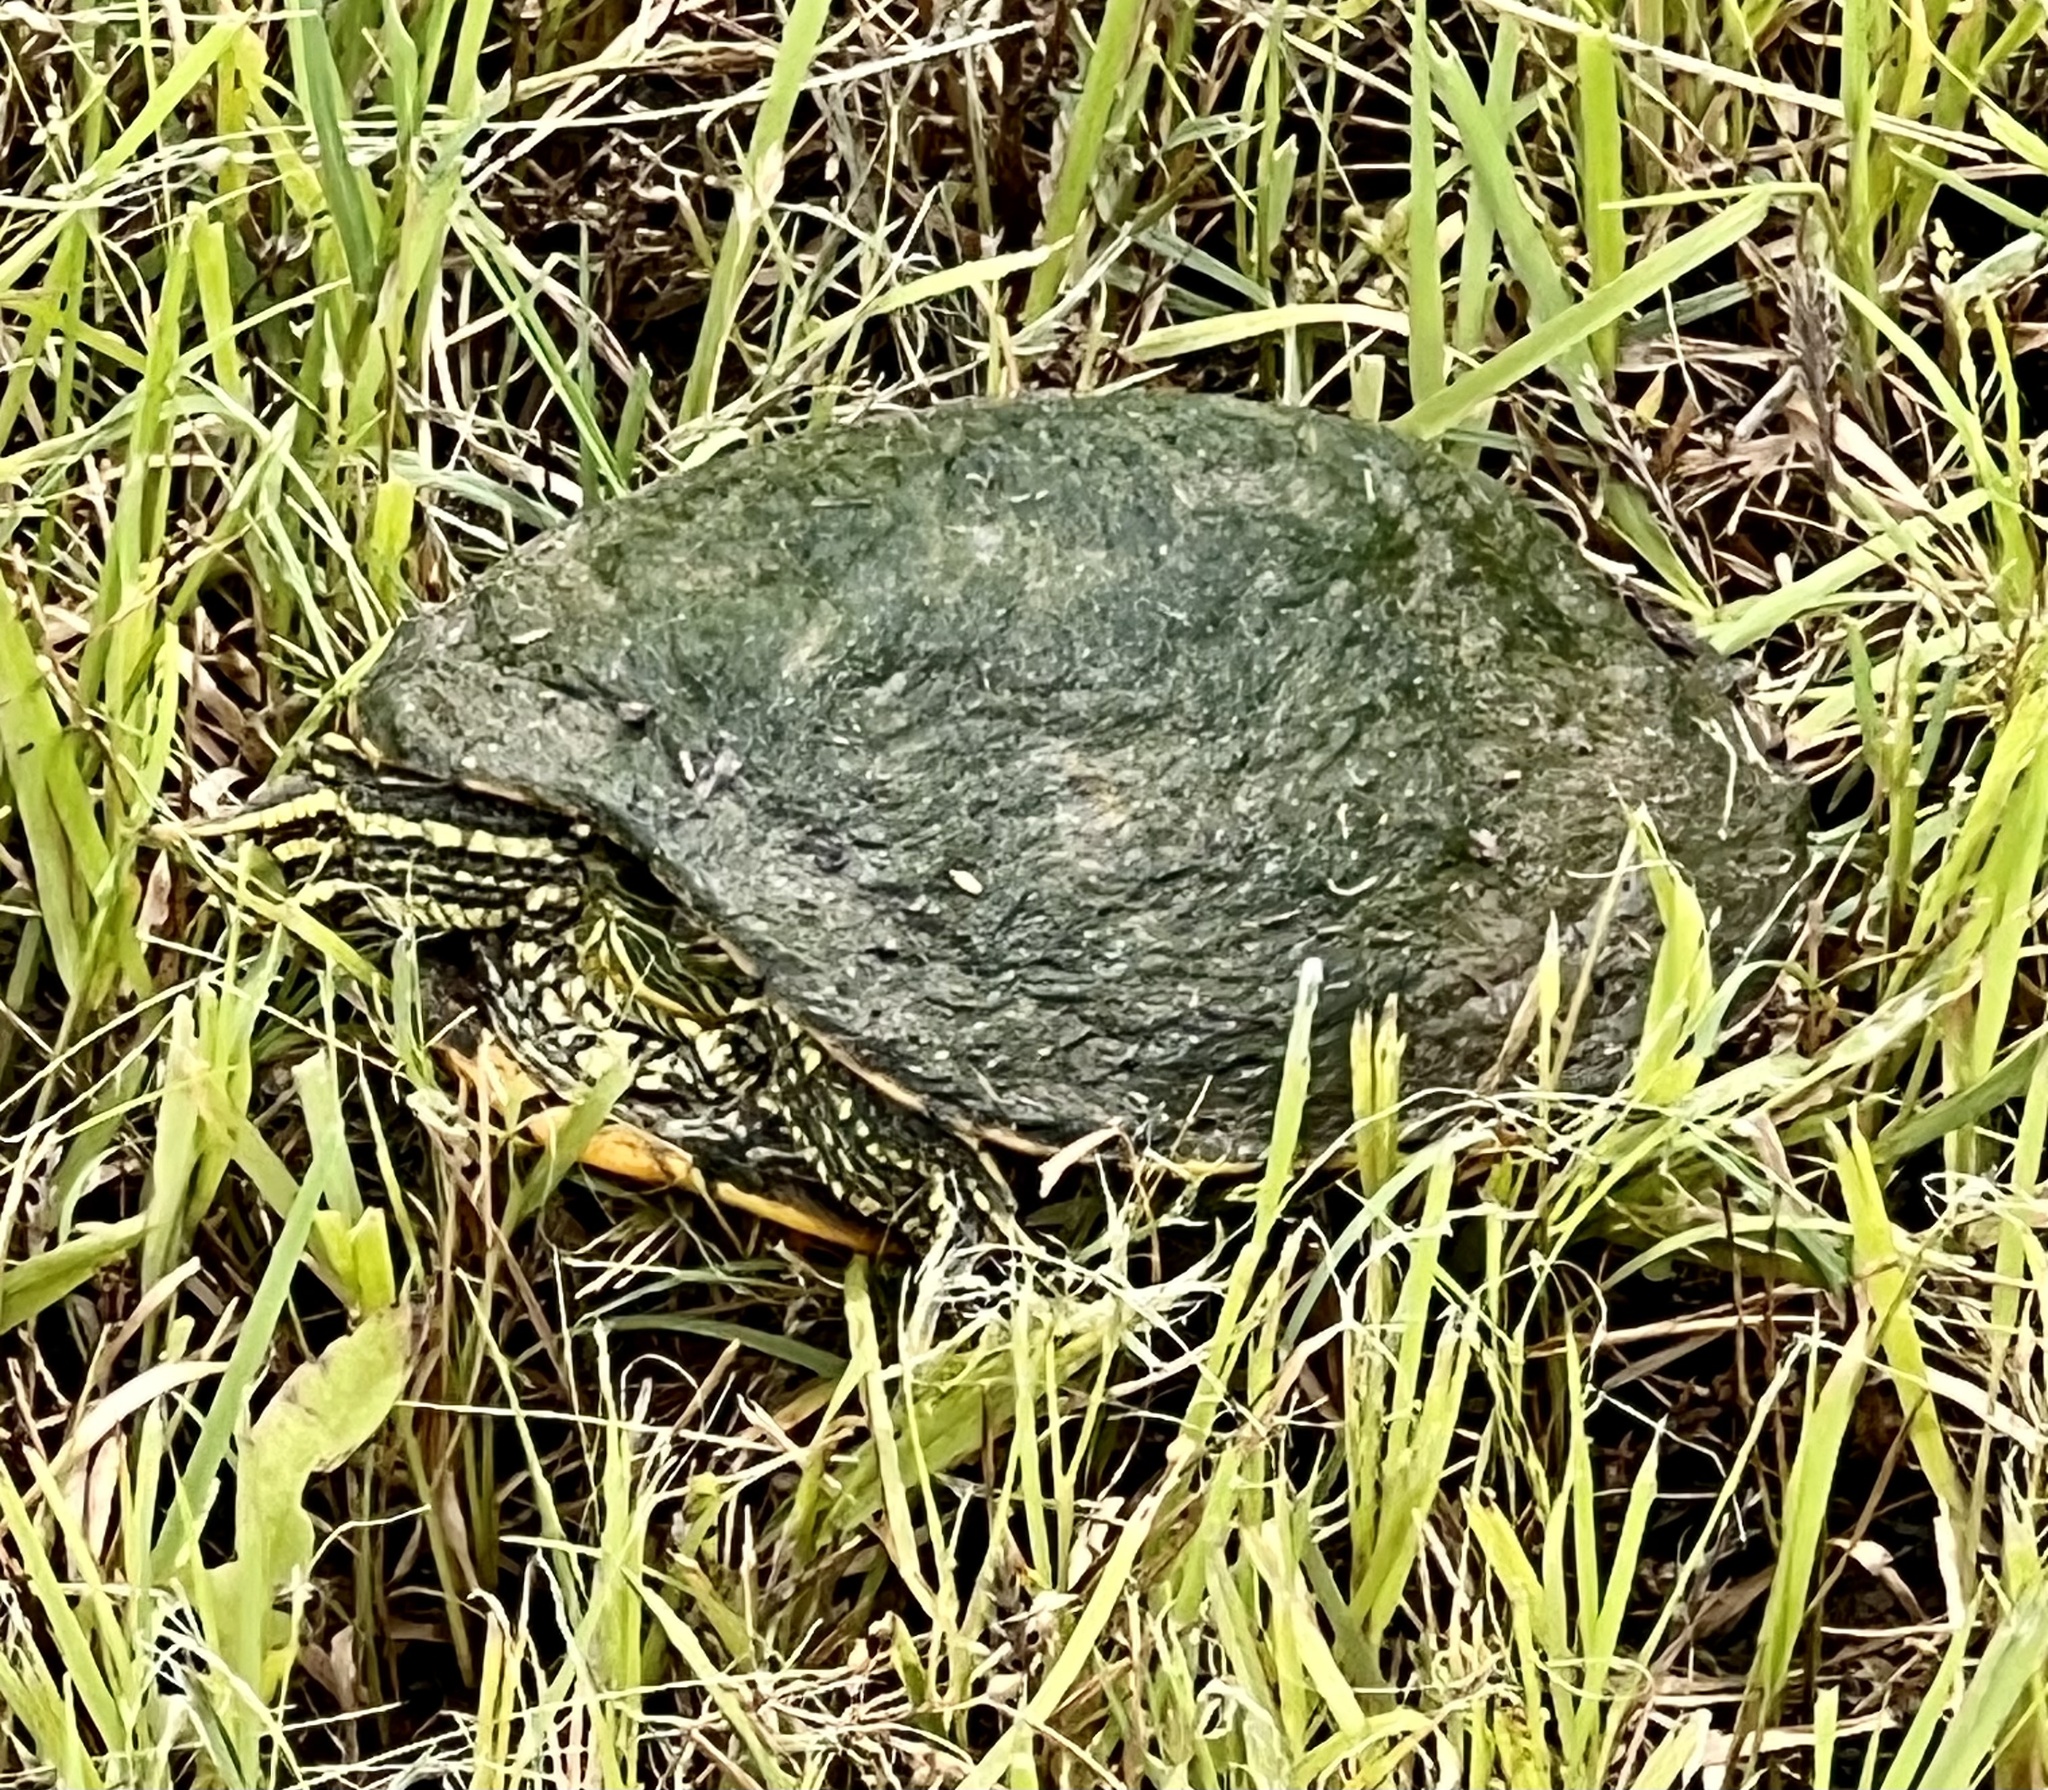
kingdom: Animalia
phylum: Chordata
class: Testudines
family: Emydidae
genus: Trachemys
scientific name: Trachemys scripta
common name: Slider
